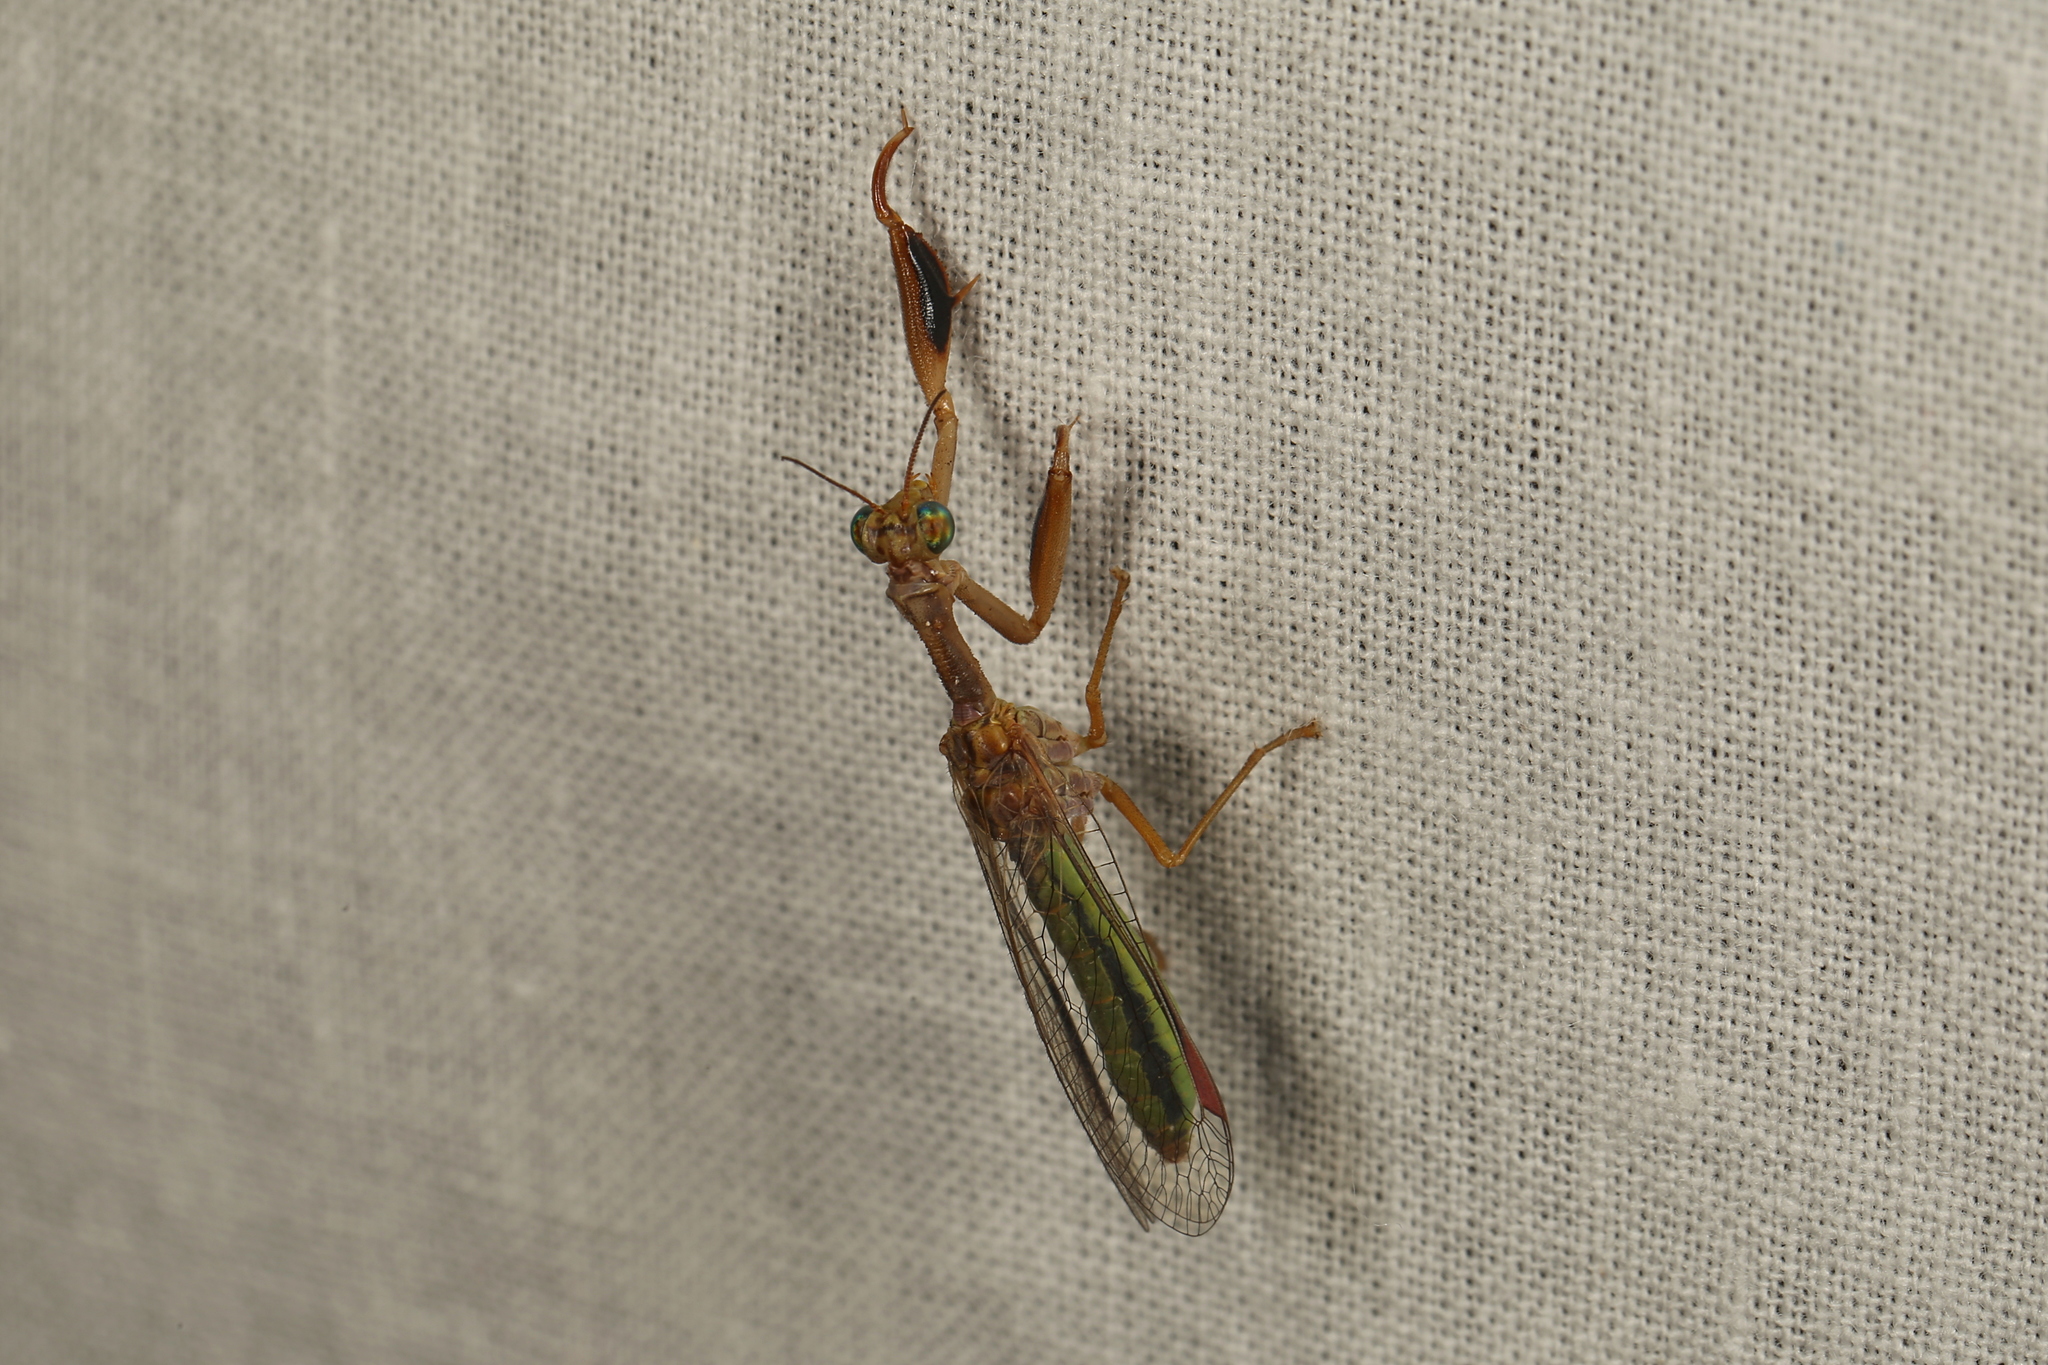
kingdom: Animalia
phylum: Arthropoda
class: Insecta
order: Neuroptera
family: Mantispidae
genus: Campion
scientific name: Campion tenuistriga
